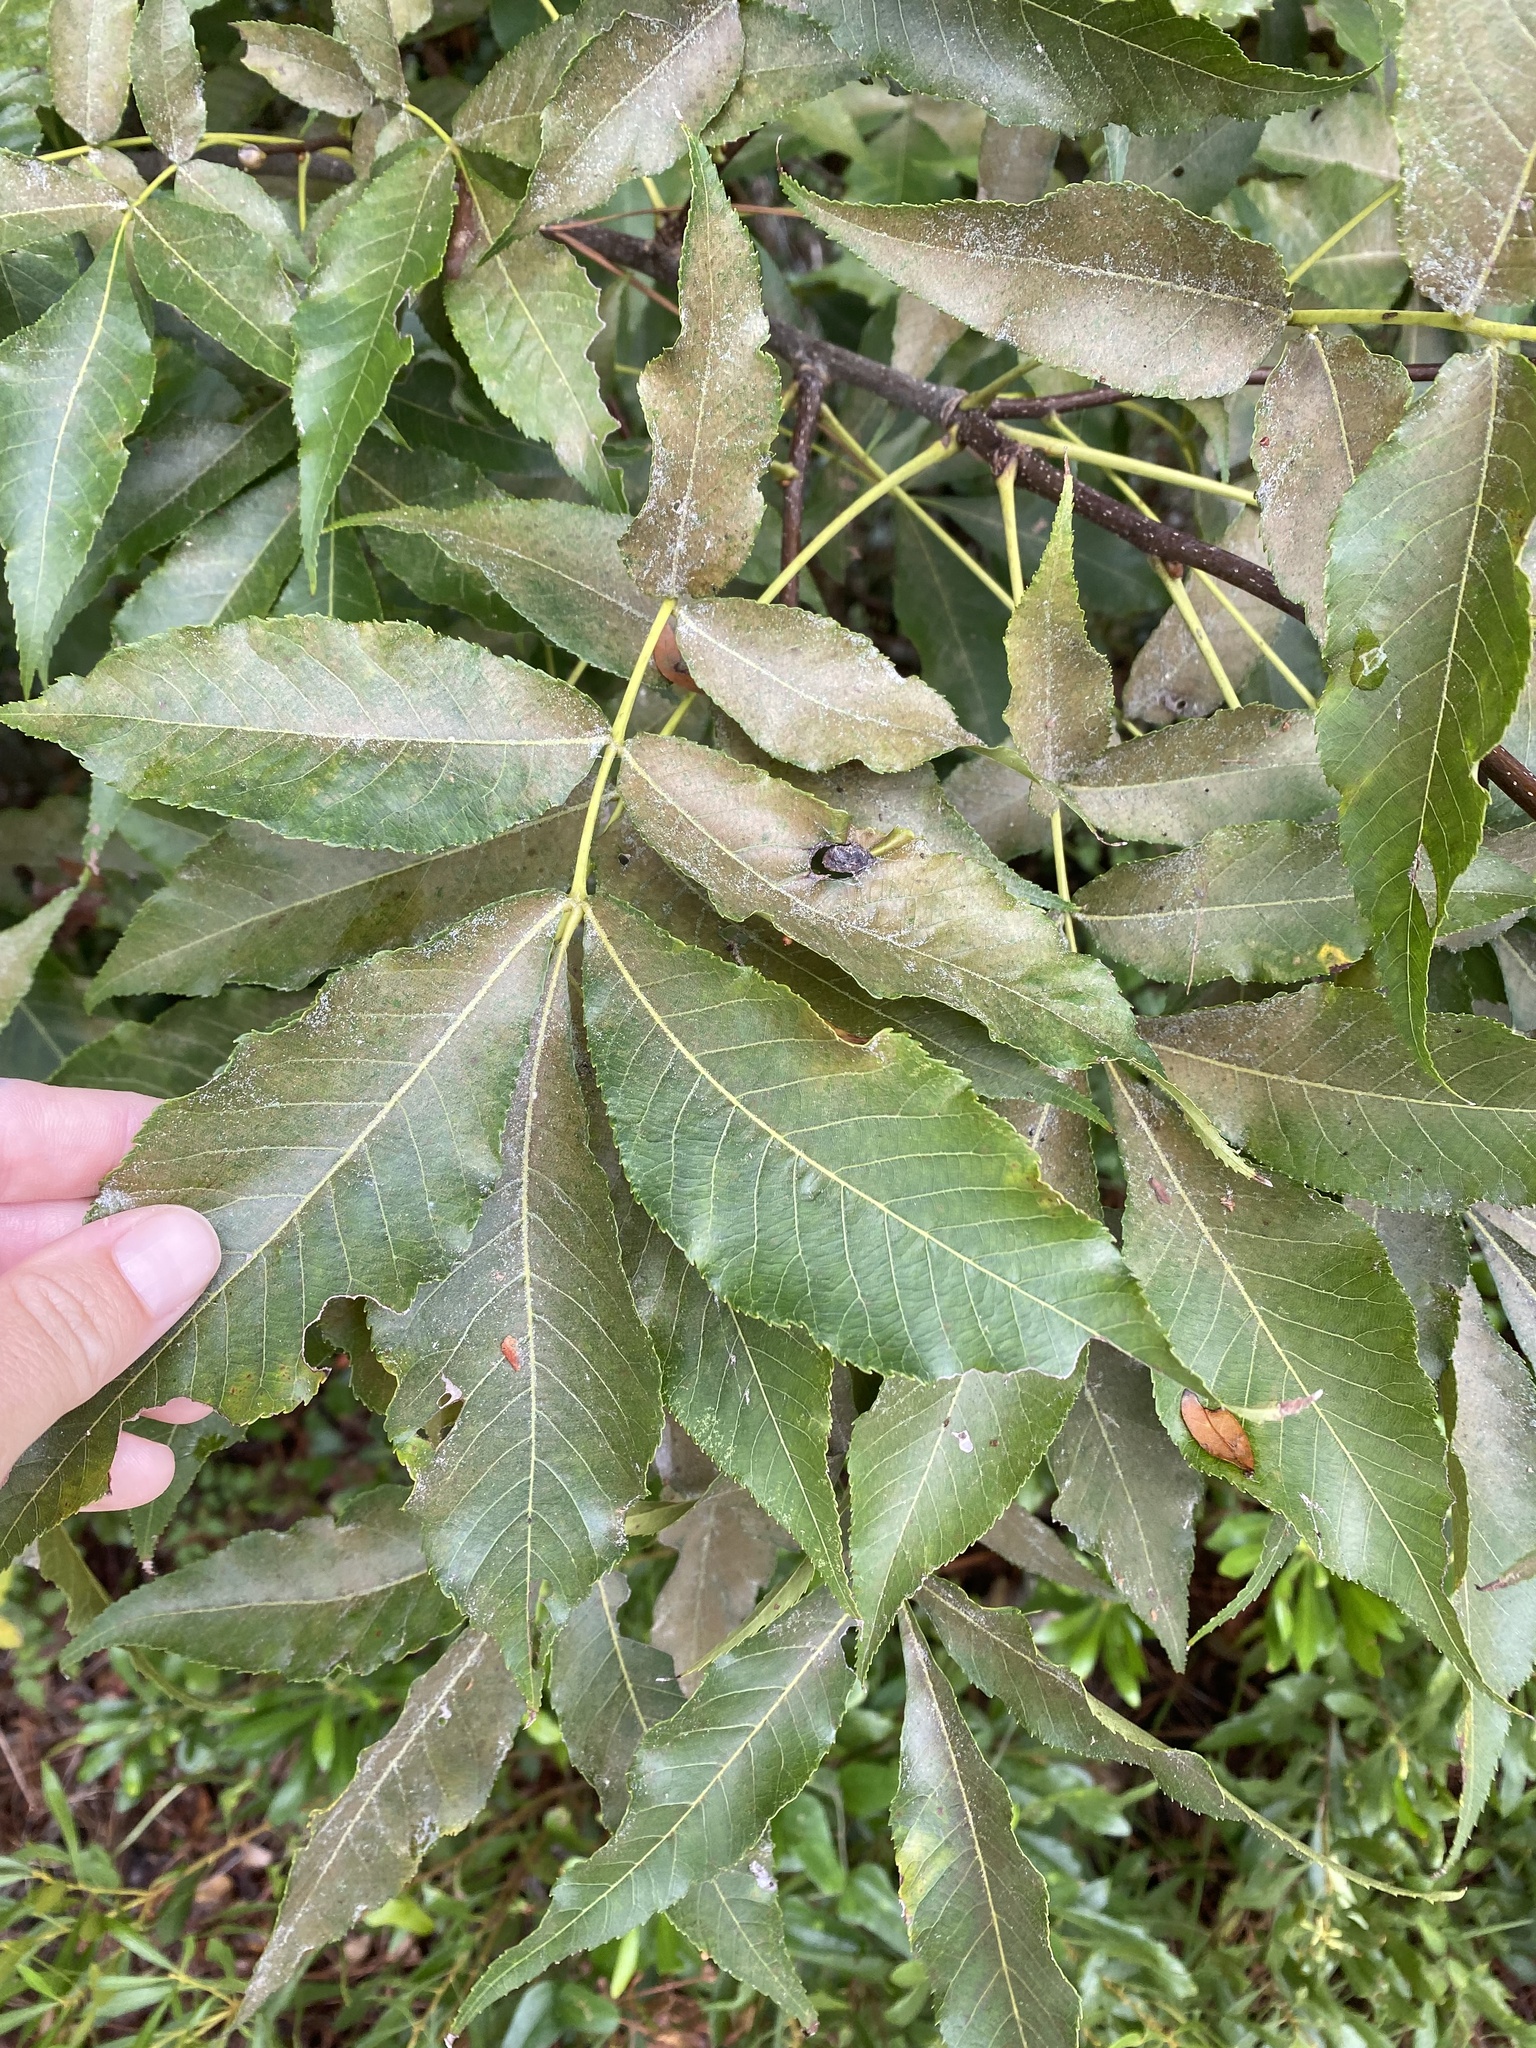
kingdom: Plantae
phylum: Tracheophyta
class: Magnoliopsida
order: Fagales
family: Juglandaceae
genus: Carya
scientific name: Carya glabra
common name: Pignut hickory
